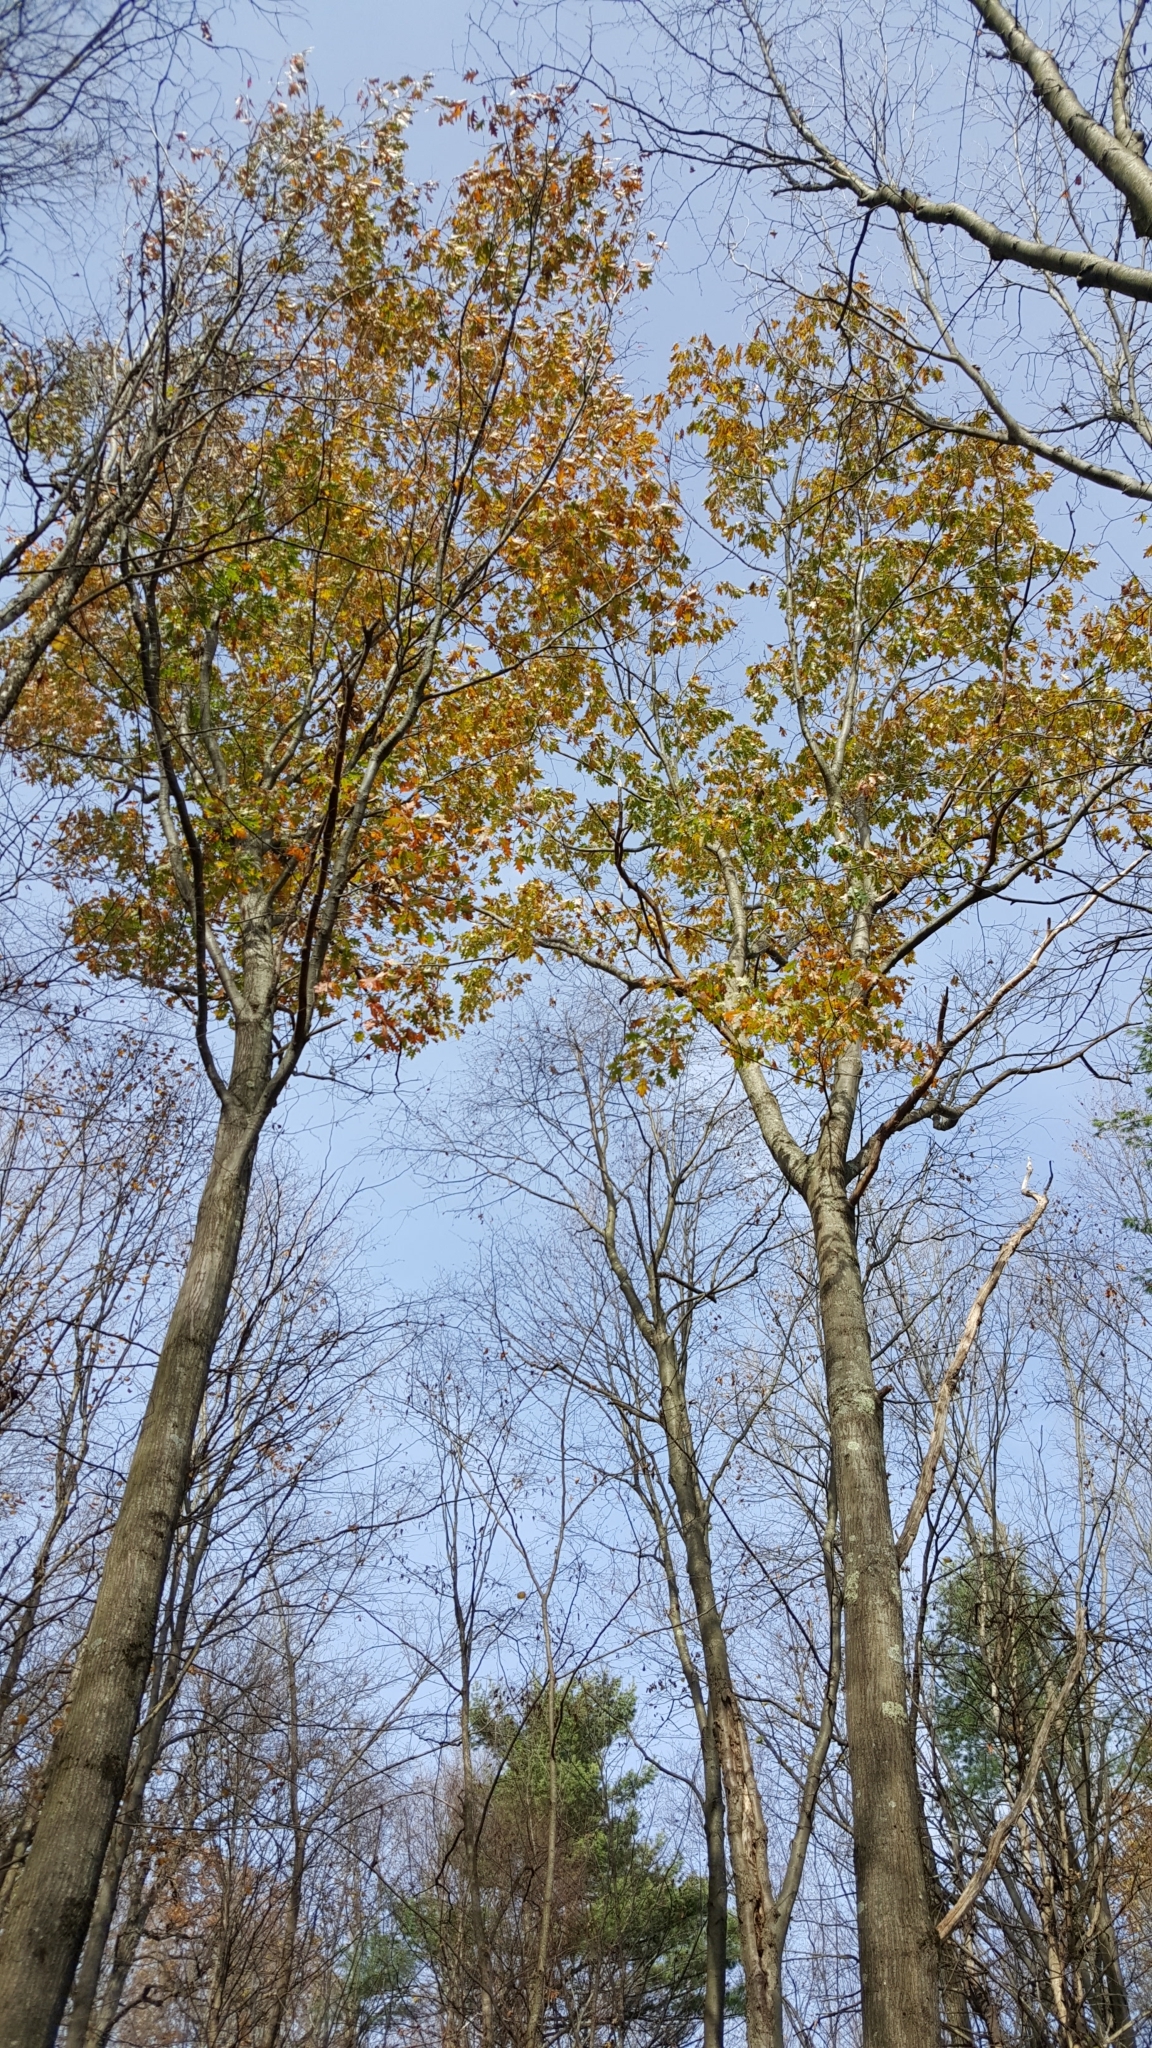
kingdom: Plantae
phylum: Tracheophyta
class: Magnoliopsida
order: Fagales
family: Fagaceae
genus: Quercus
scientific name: Quercus rubra
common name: Red oak
